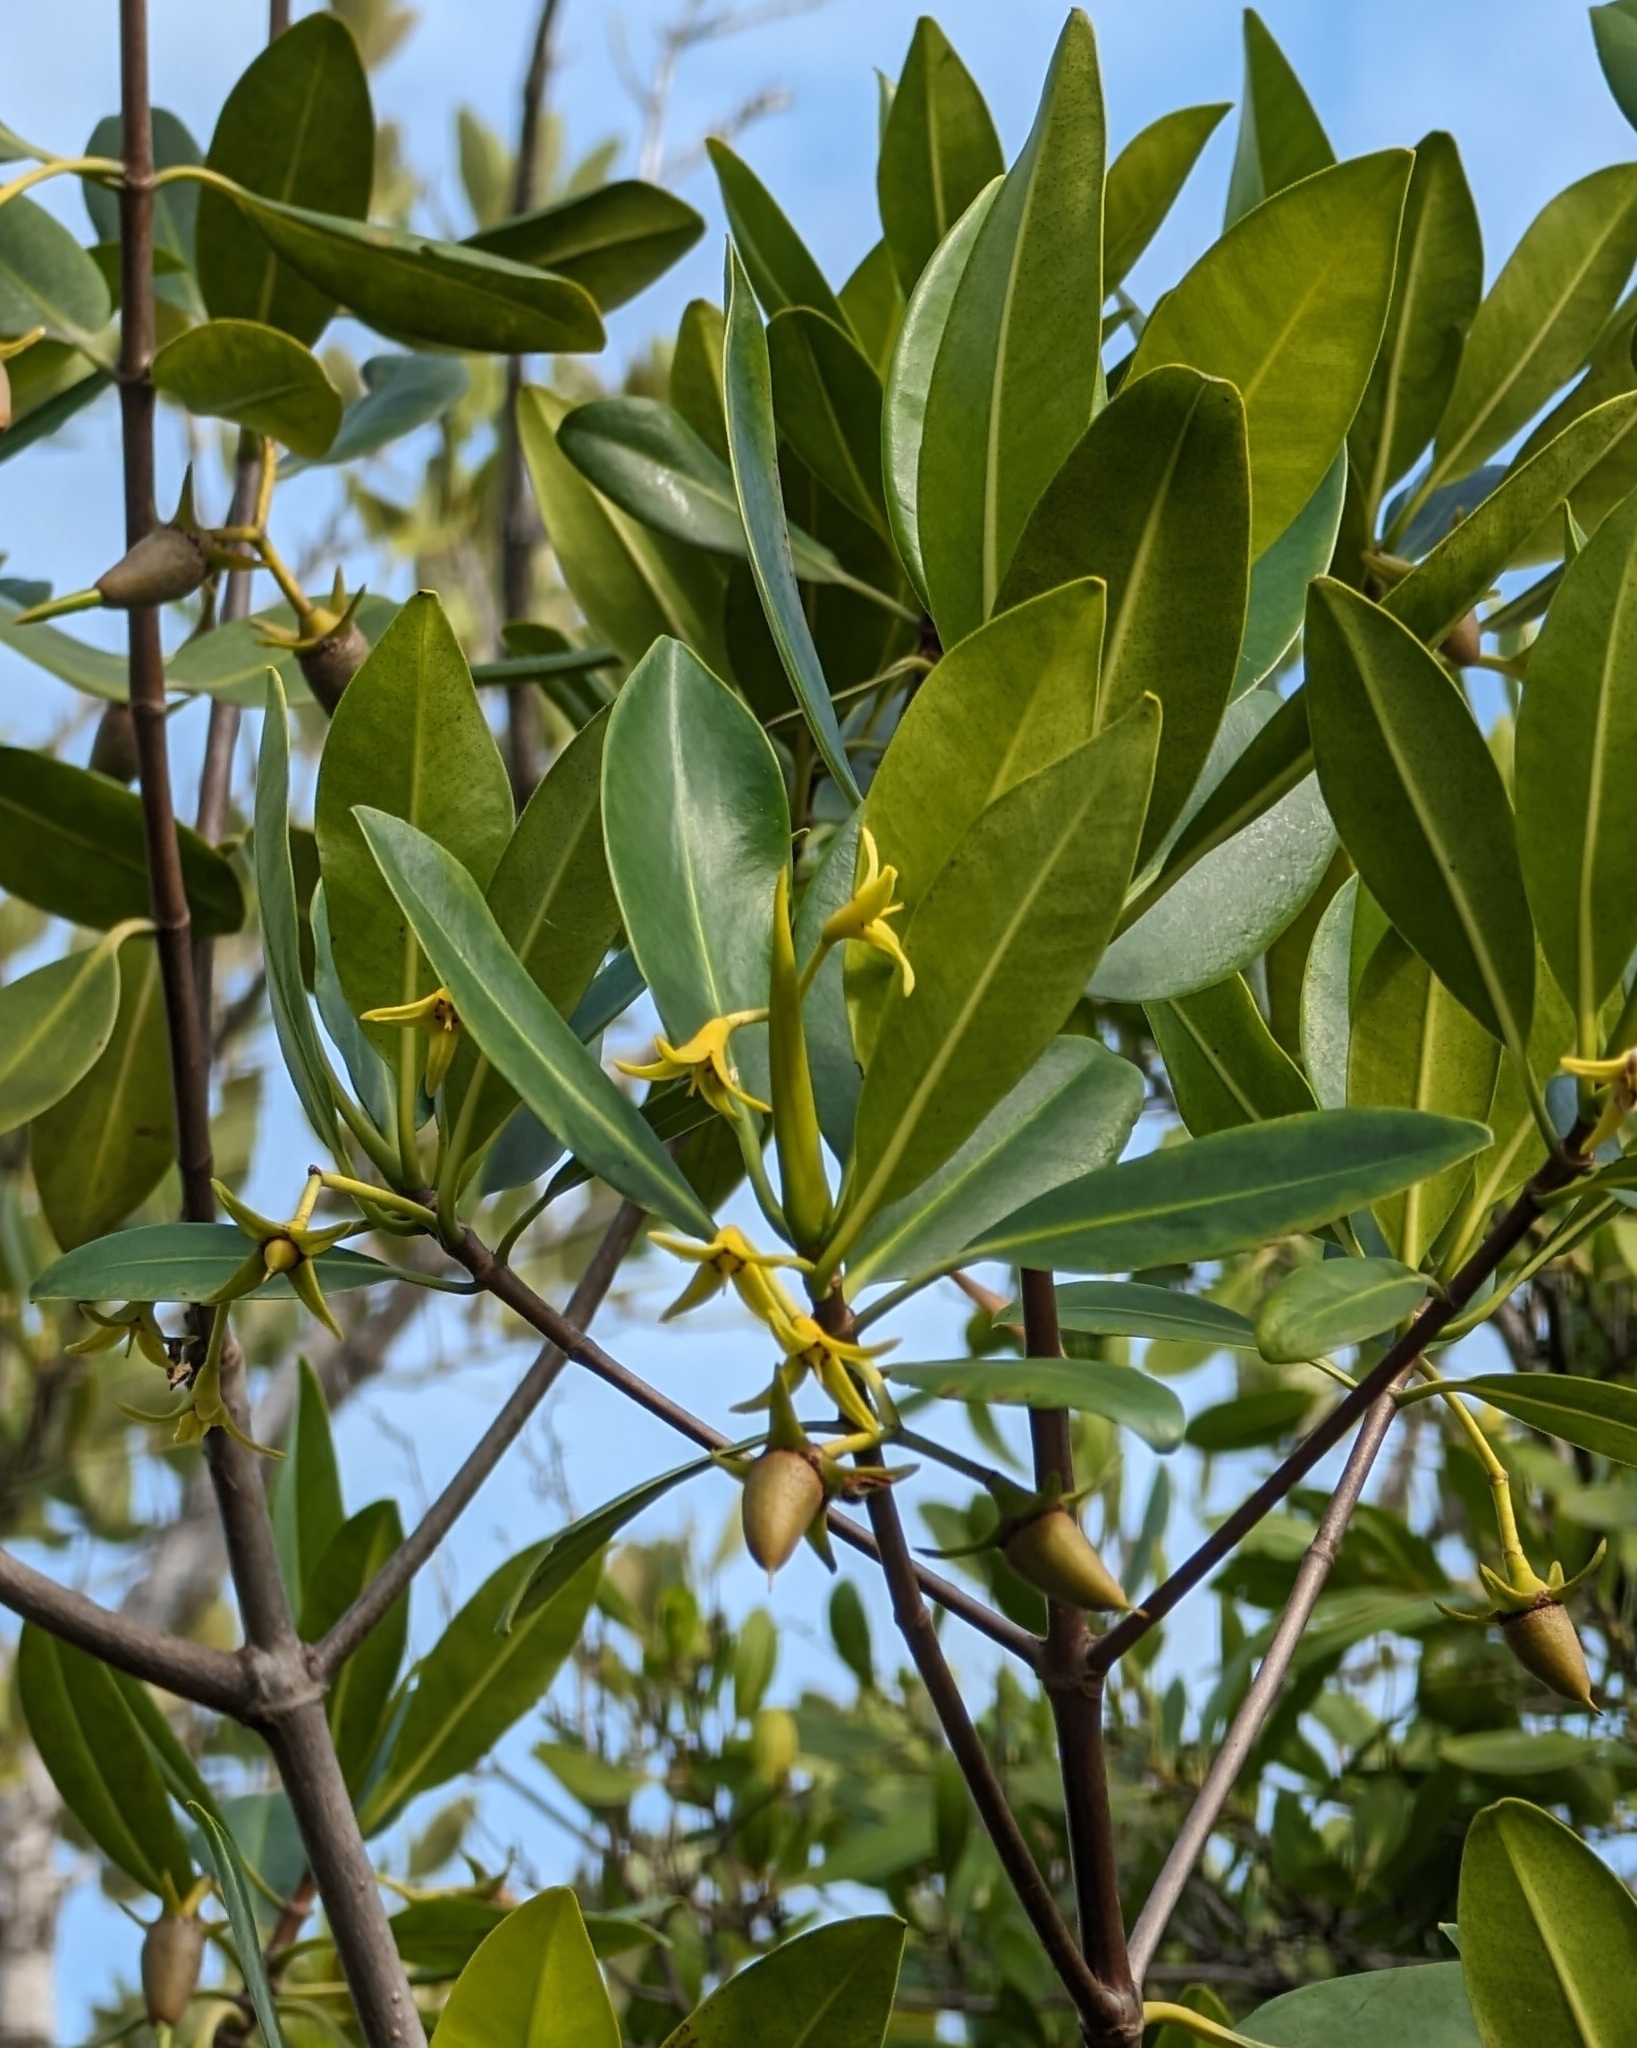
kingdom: Plantae
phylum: Tracheophyta
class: Magnoliopsida
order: Malpighiales
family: Rhizophoraceae
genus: Rhizophora
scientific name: Rhizophora mangle
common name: Red mangrove
